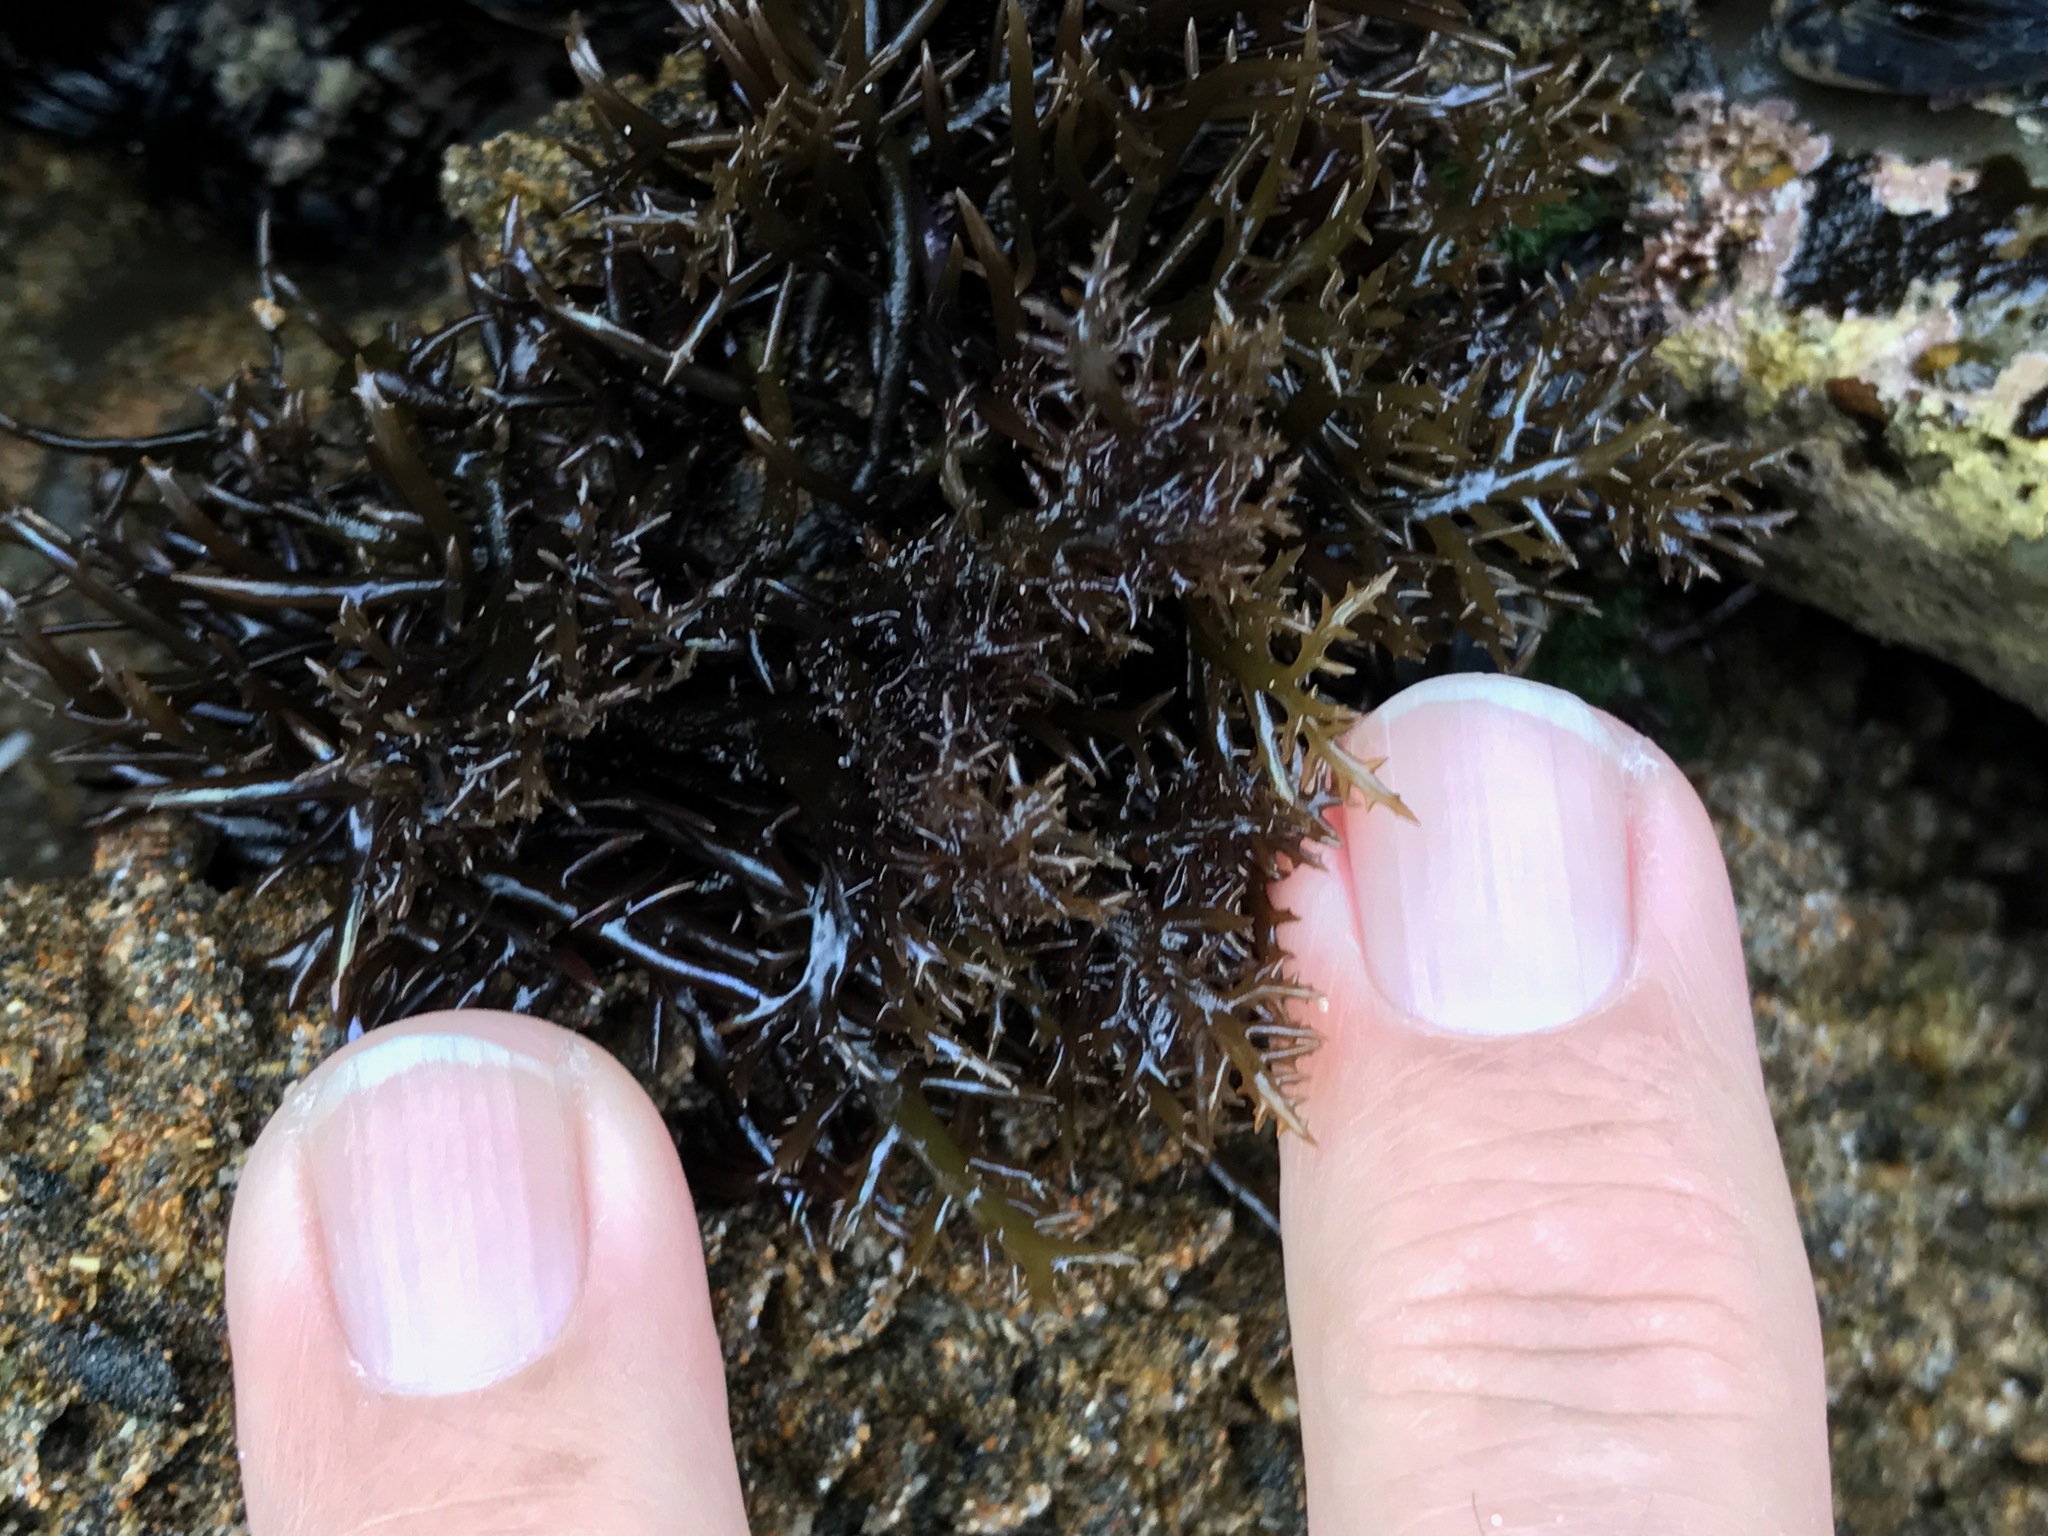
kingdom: Plantae
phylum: Rhodophyta
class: Florideophyceae
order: Gigartinales
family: Gigartinaceae
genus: Chondracanthus
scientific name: Chondracanthus canaliculatus
